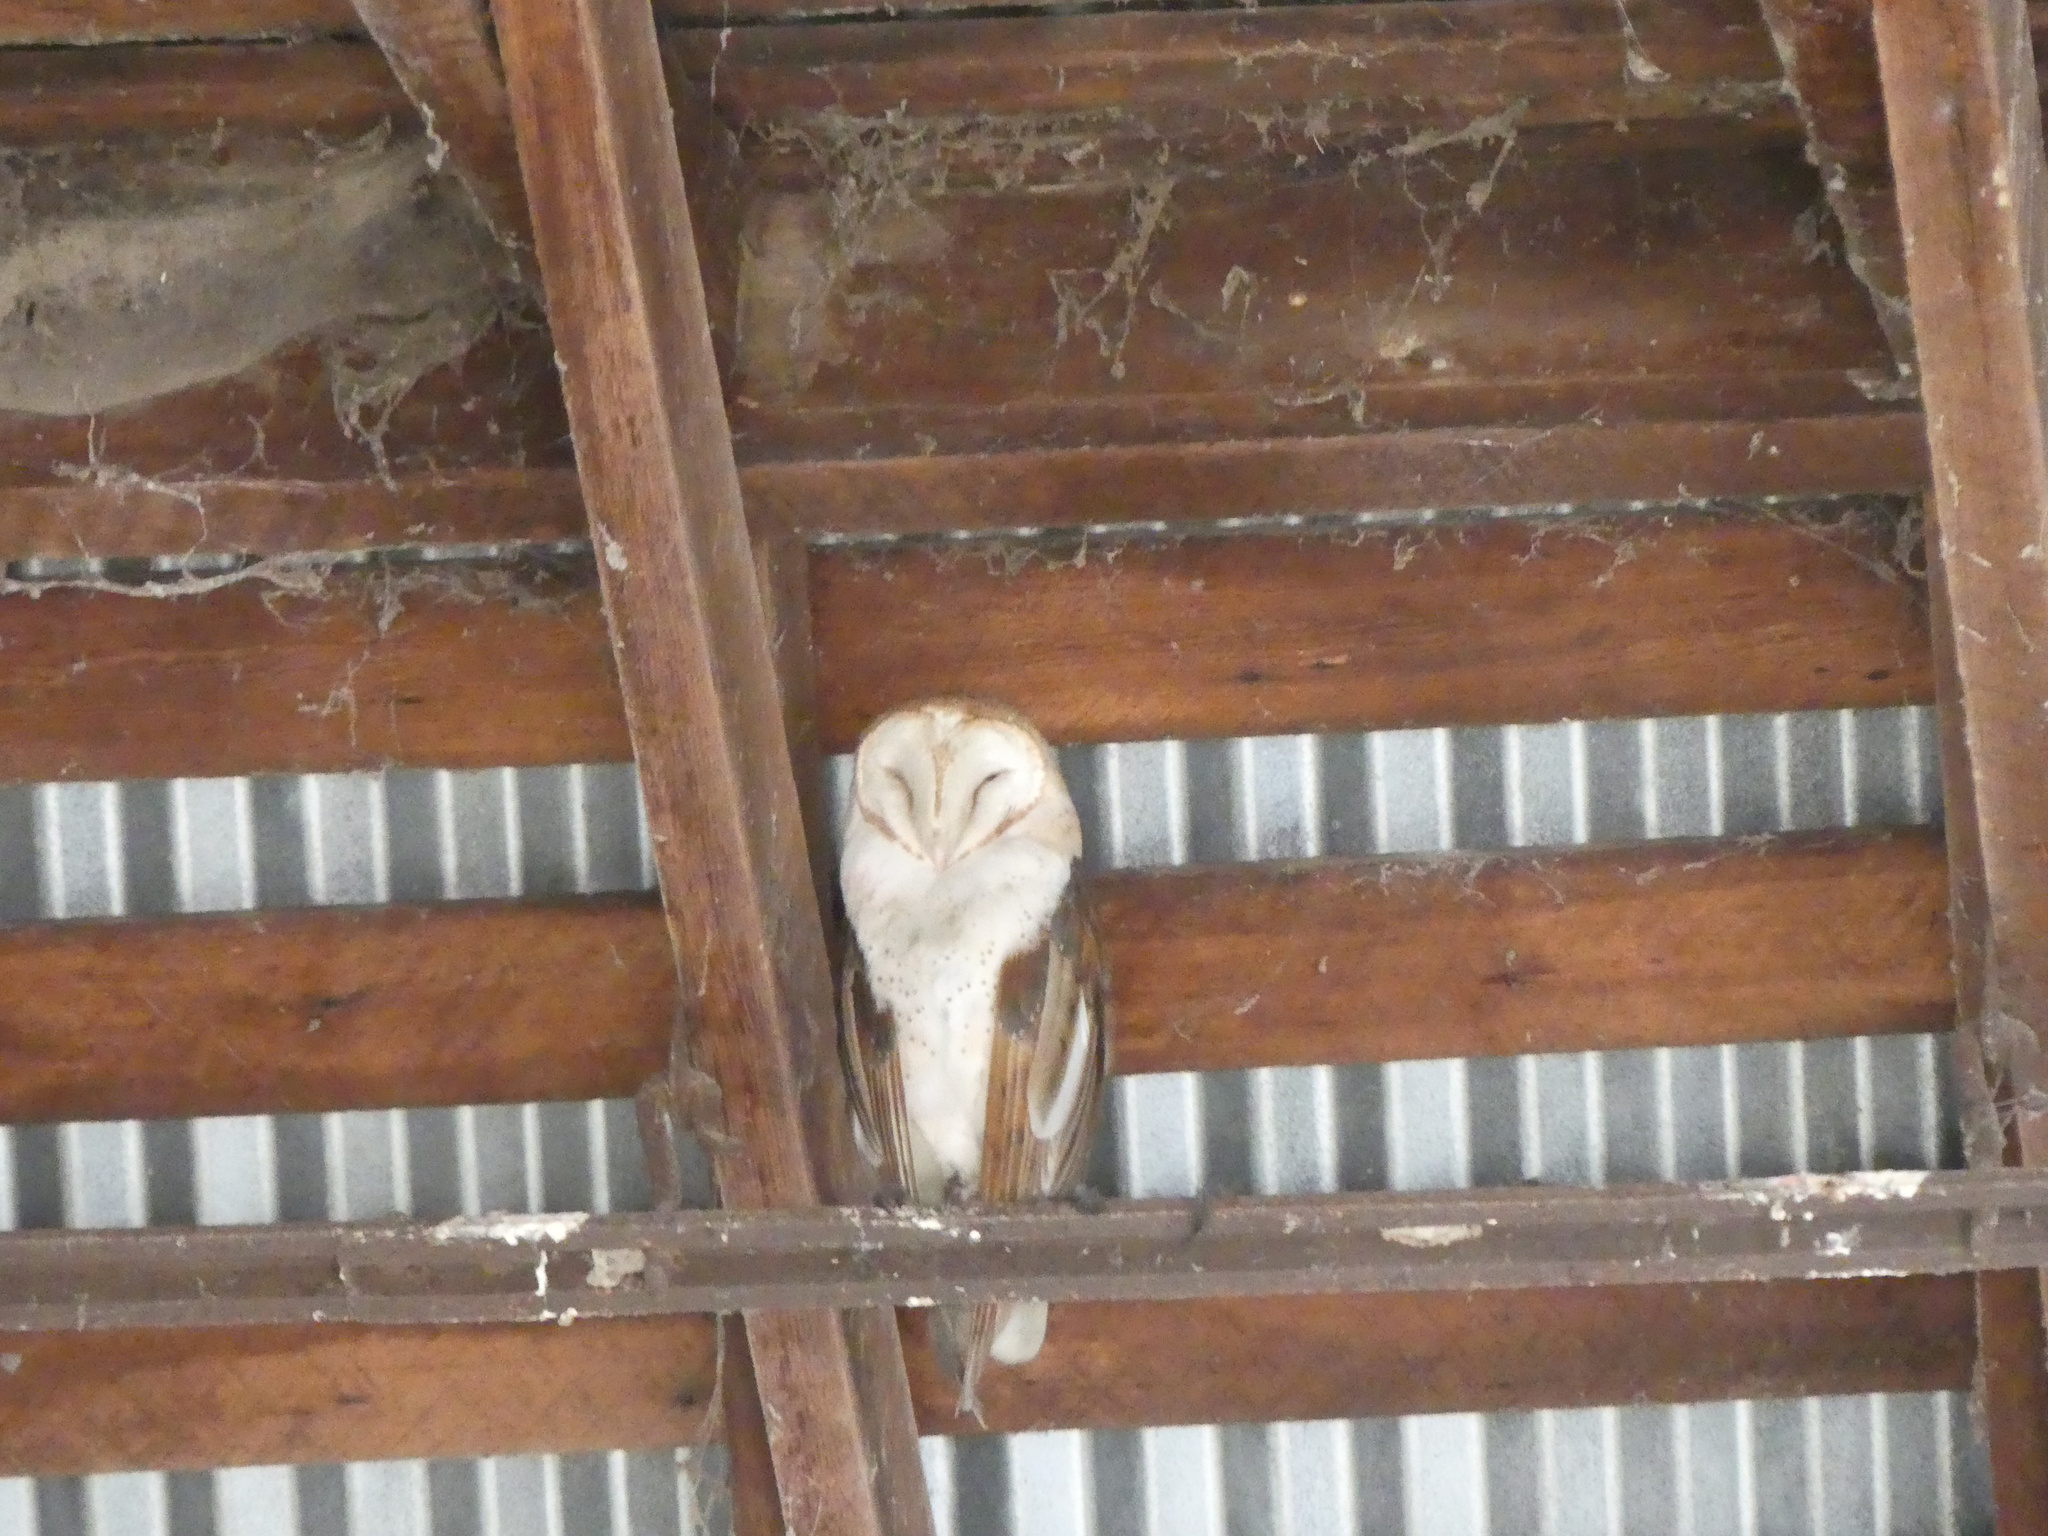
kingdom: Animalia
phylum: Chordata
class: Aves
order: Strigiformes
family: Tytonidae
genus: Tyto
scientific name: Tyto alba
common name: Barn owl
